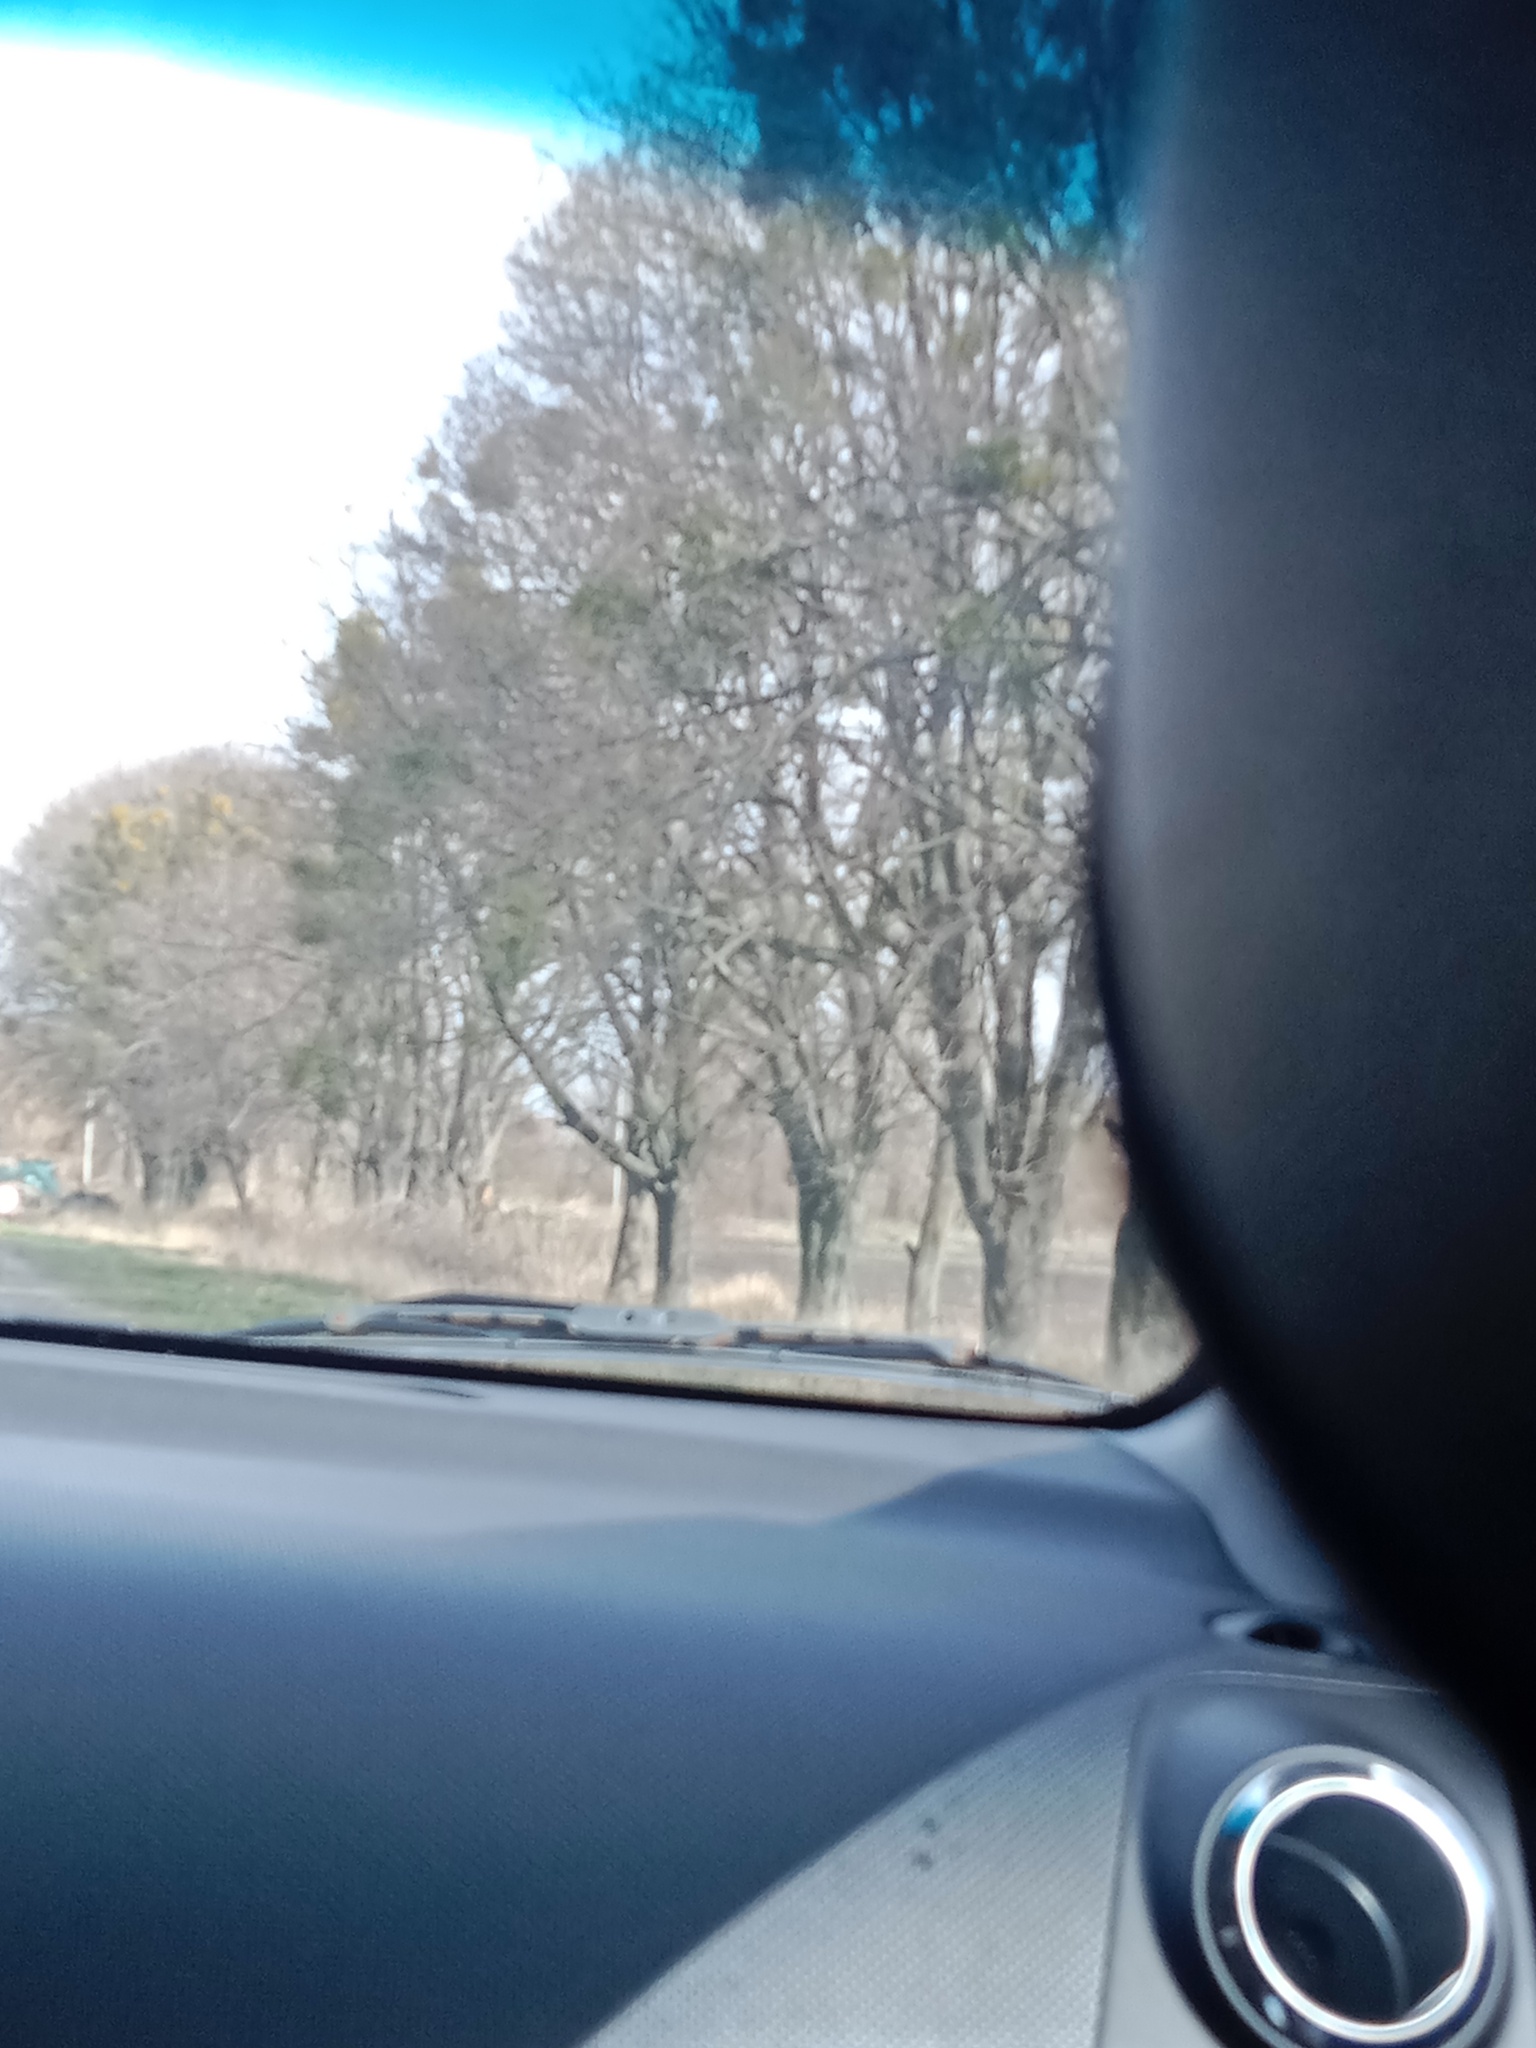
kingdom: Plantae
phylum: Tracheophyta
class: Magnoliopsida
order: Santalales
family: Viscaceae
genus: Viscum
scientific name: Viscum album
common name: Mistletoe
